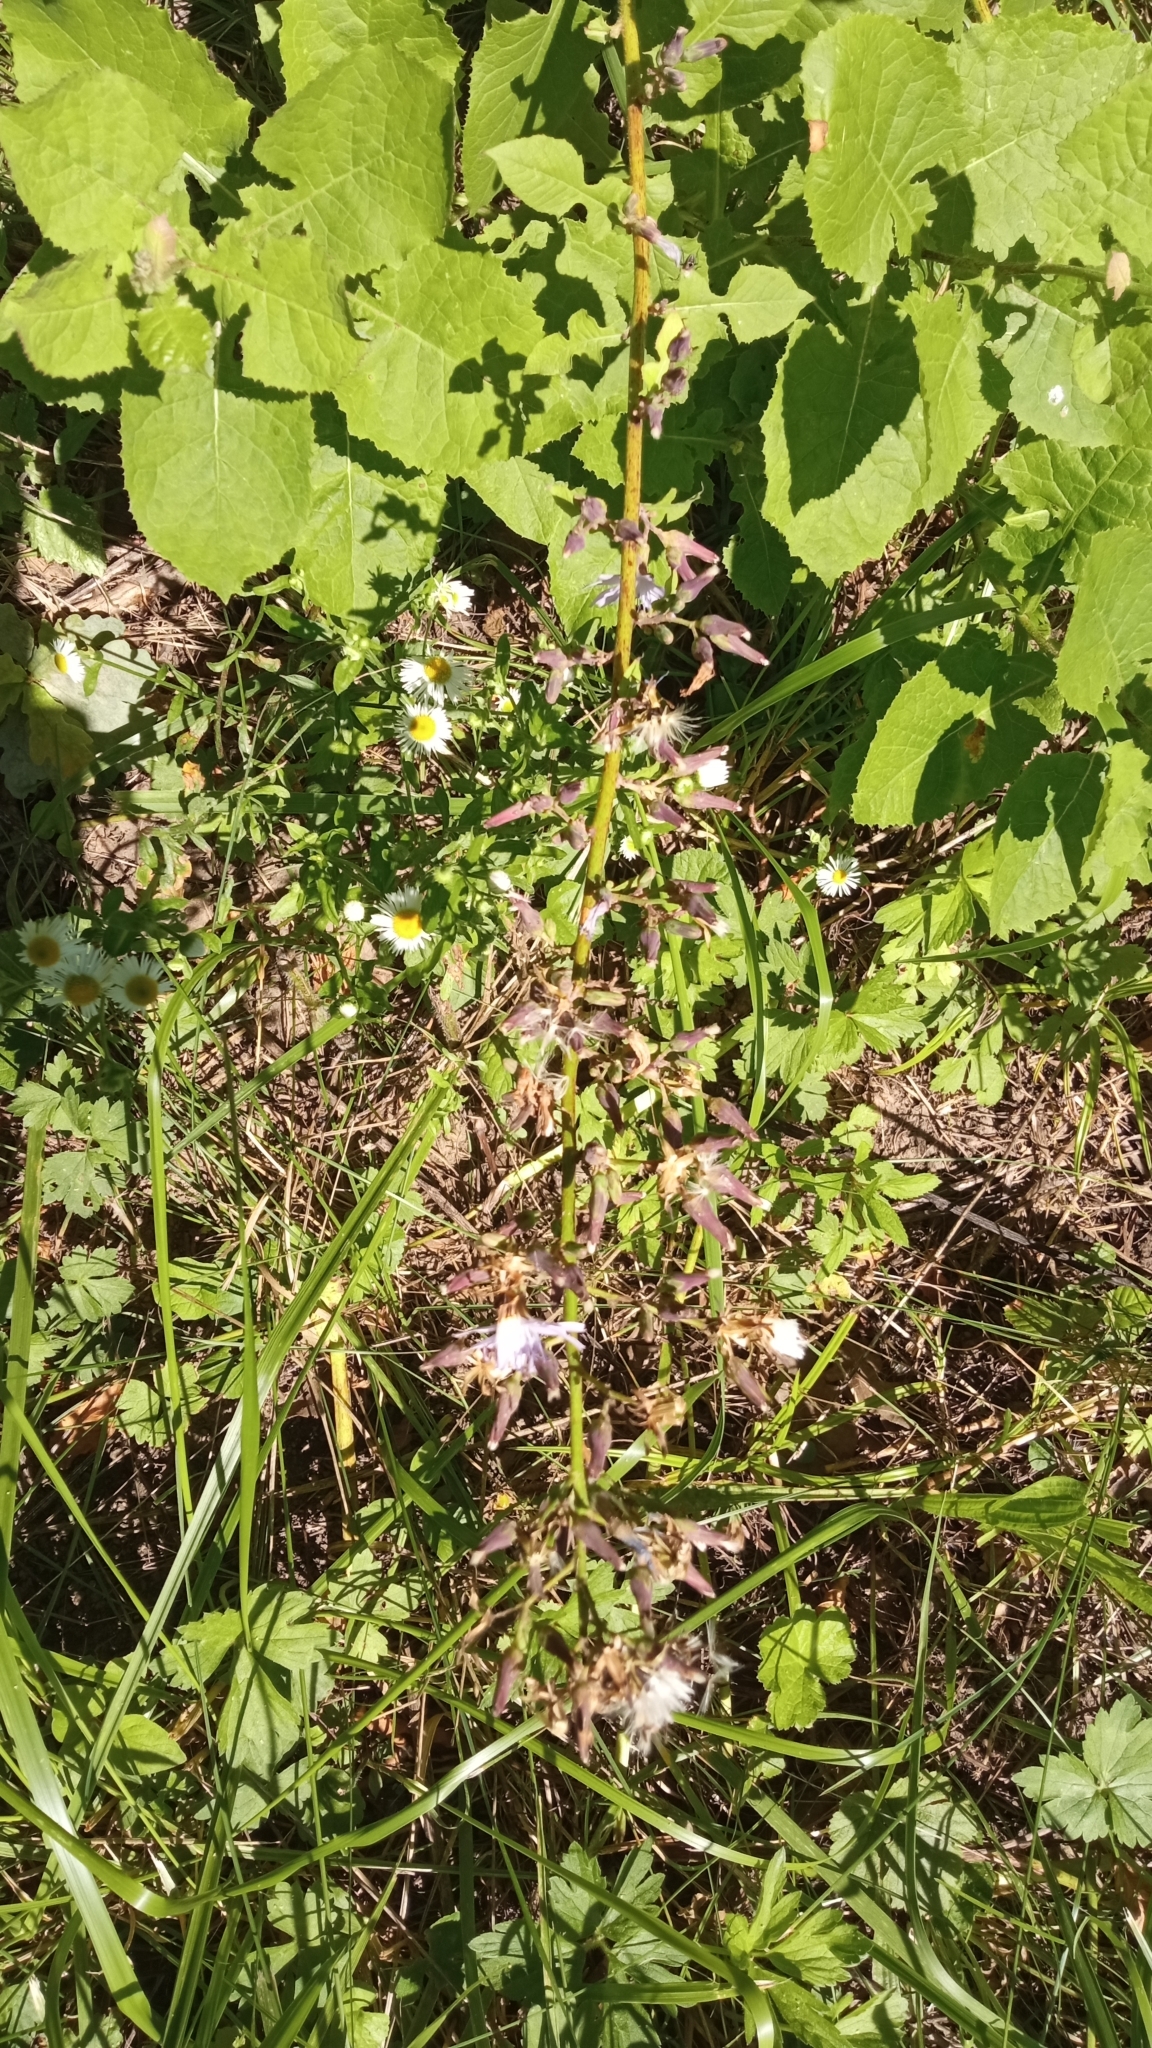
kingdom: Plantae
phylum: Tracheophyta
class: Magnoliopsida
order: Asterales
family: Asteraceae
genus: Cicerbita
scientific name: Cicerbita prenanthoides
